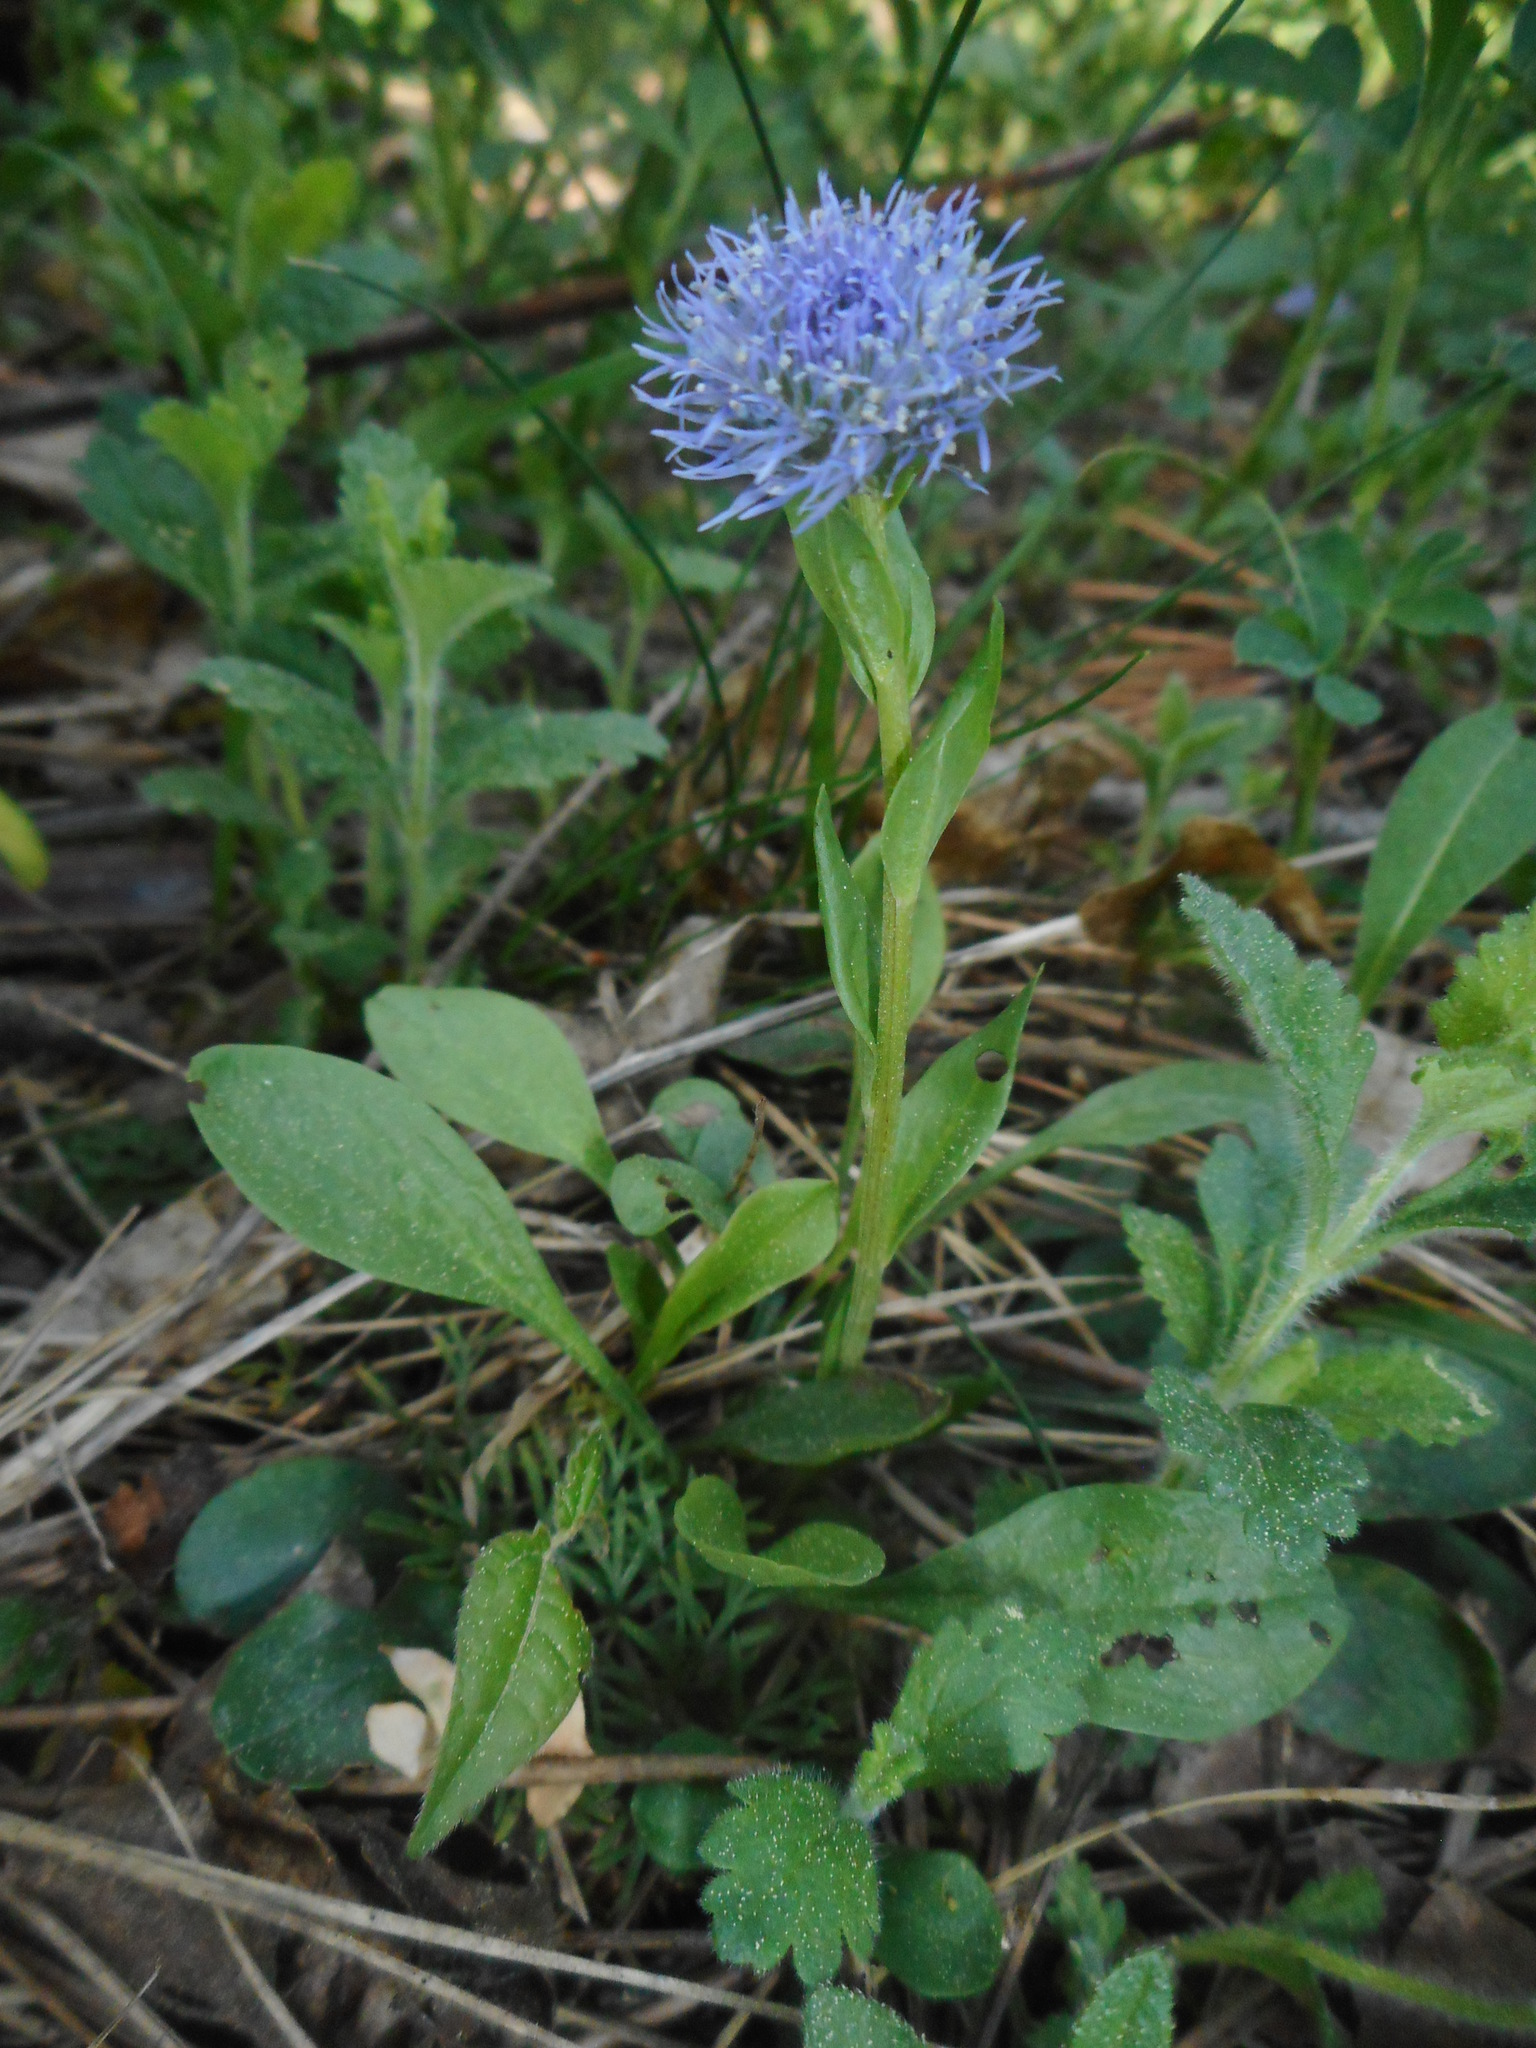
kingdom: Plantae
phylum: Tracheophyta
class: Magnoliopsida
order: Lamiales
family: Plantaginaceae
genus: Globularia
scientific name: Globularia bisnagarica
